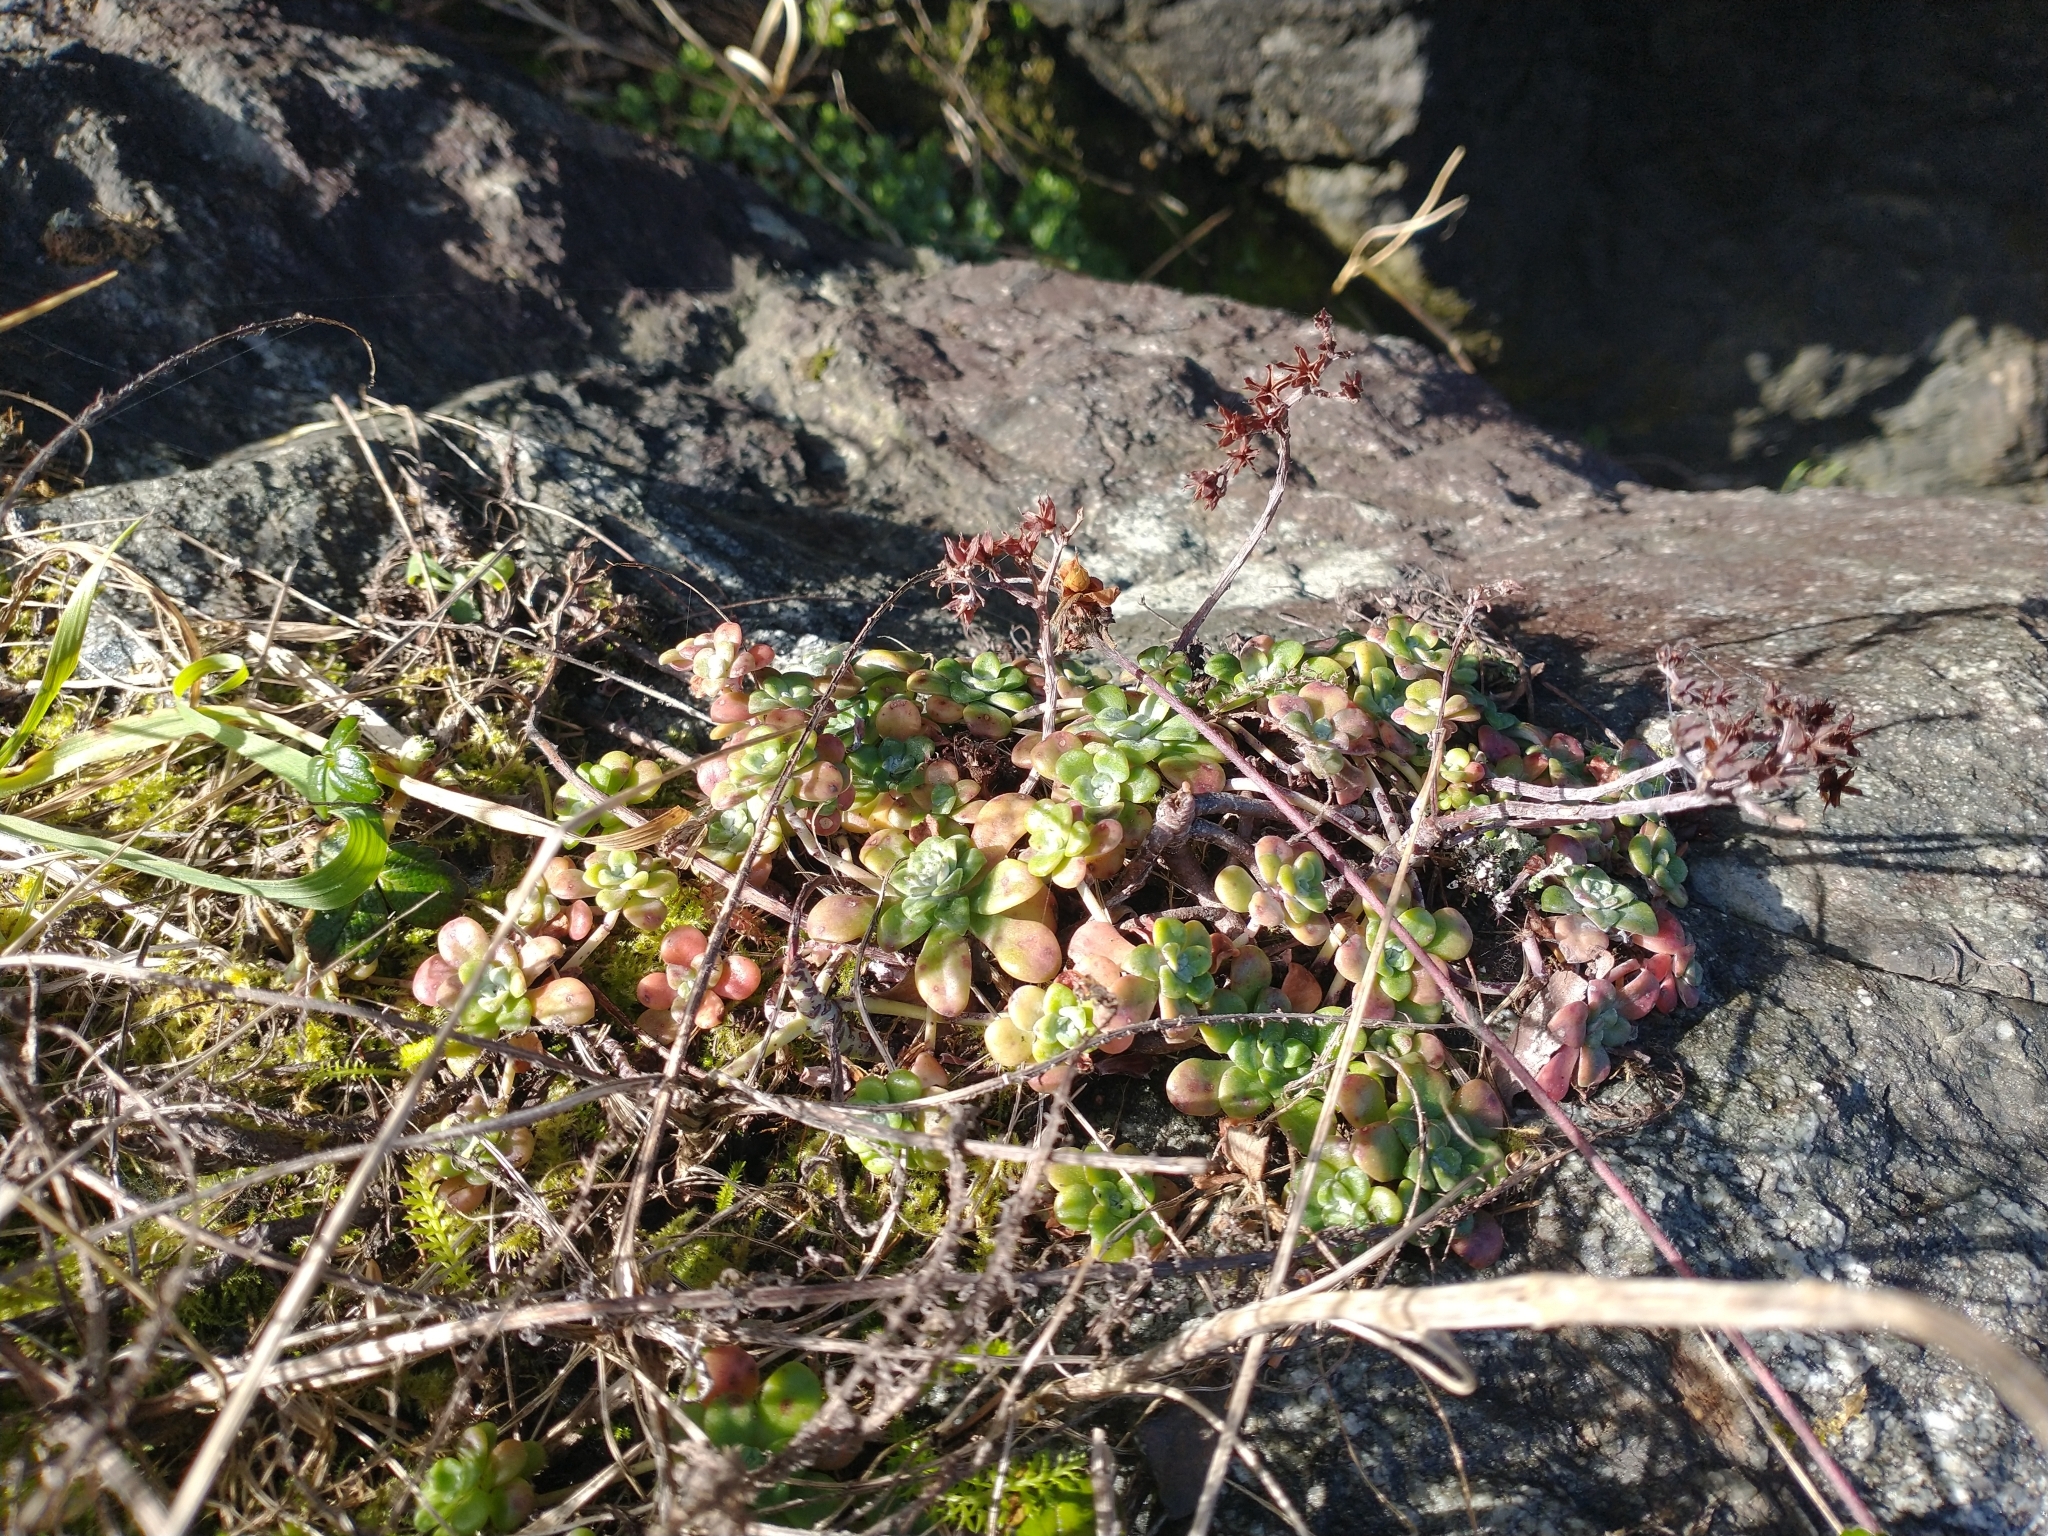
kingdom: Plantae
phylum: Tracheophyta
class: Magnoliopsida
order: Saxifragales
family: Crassulaceae
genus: Sedum
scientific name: Sedum spathulifolium
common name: Colorado stonecrop
